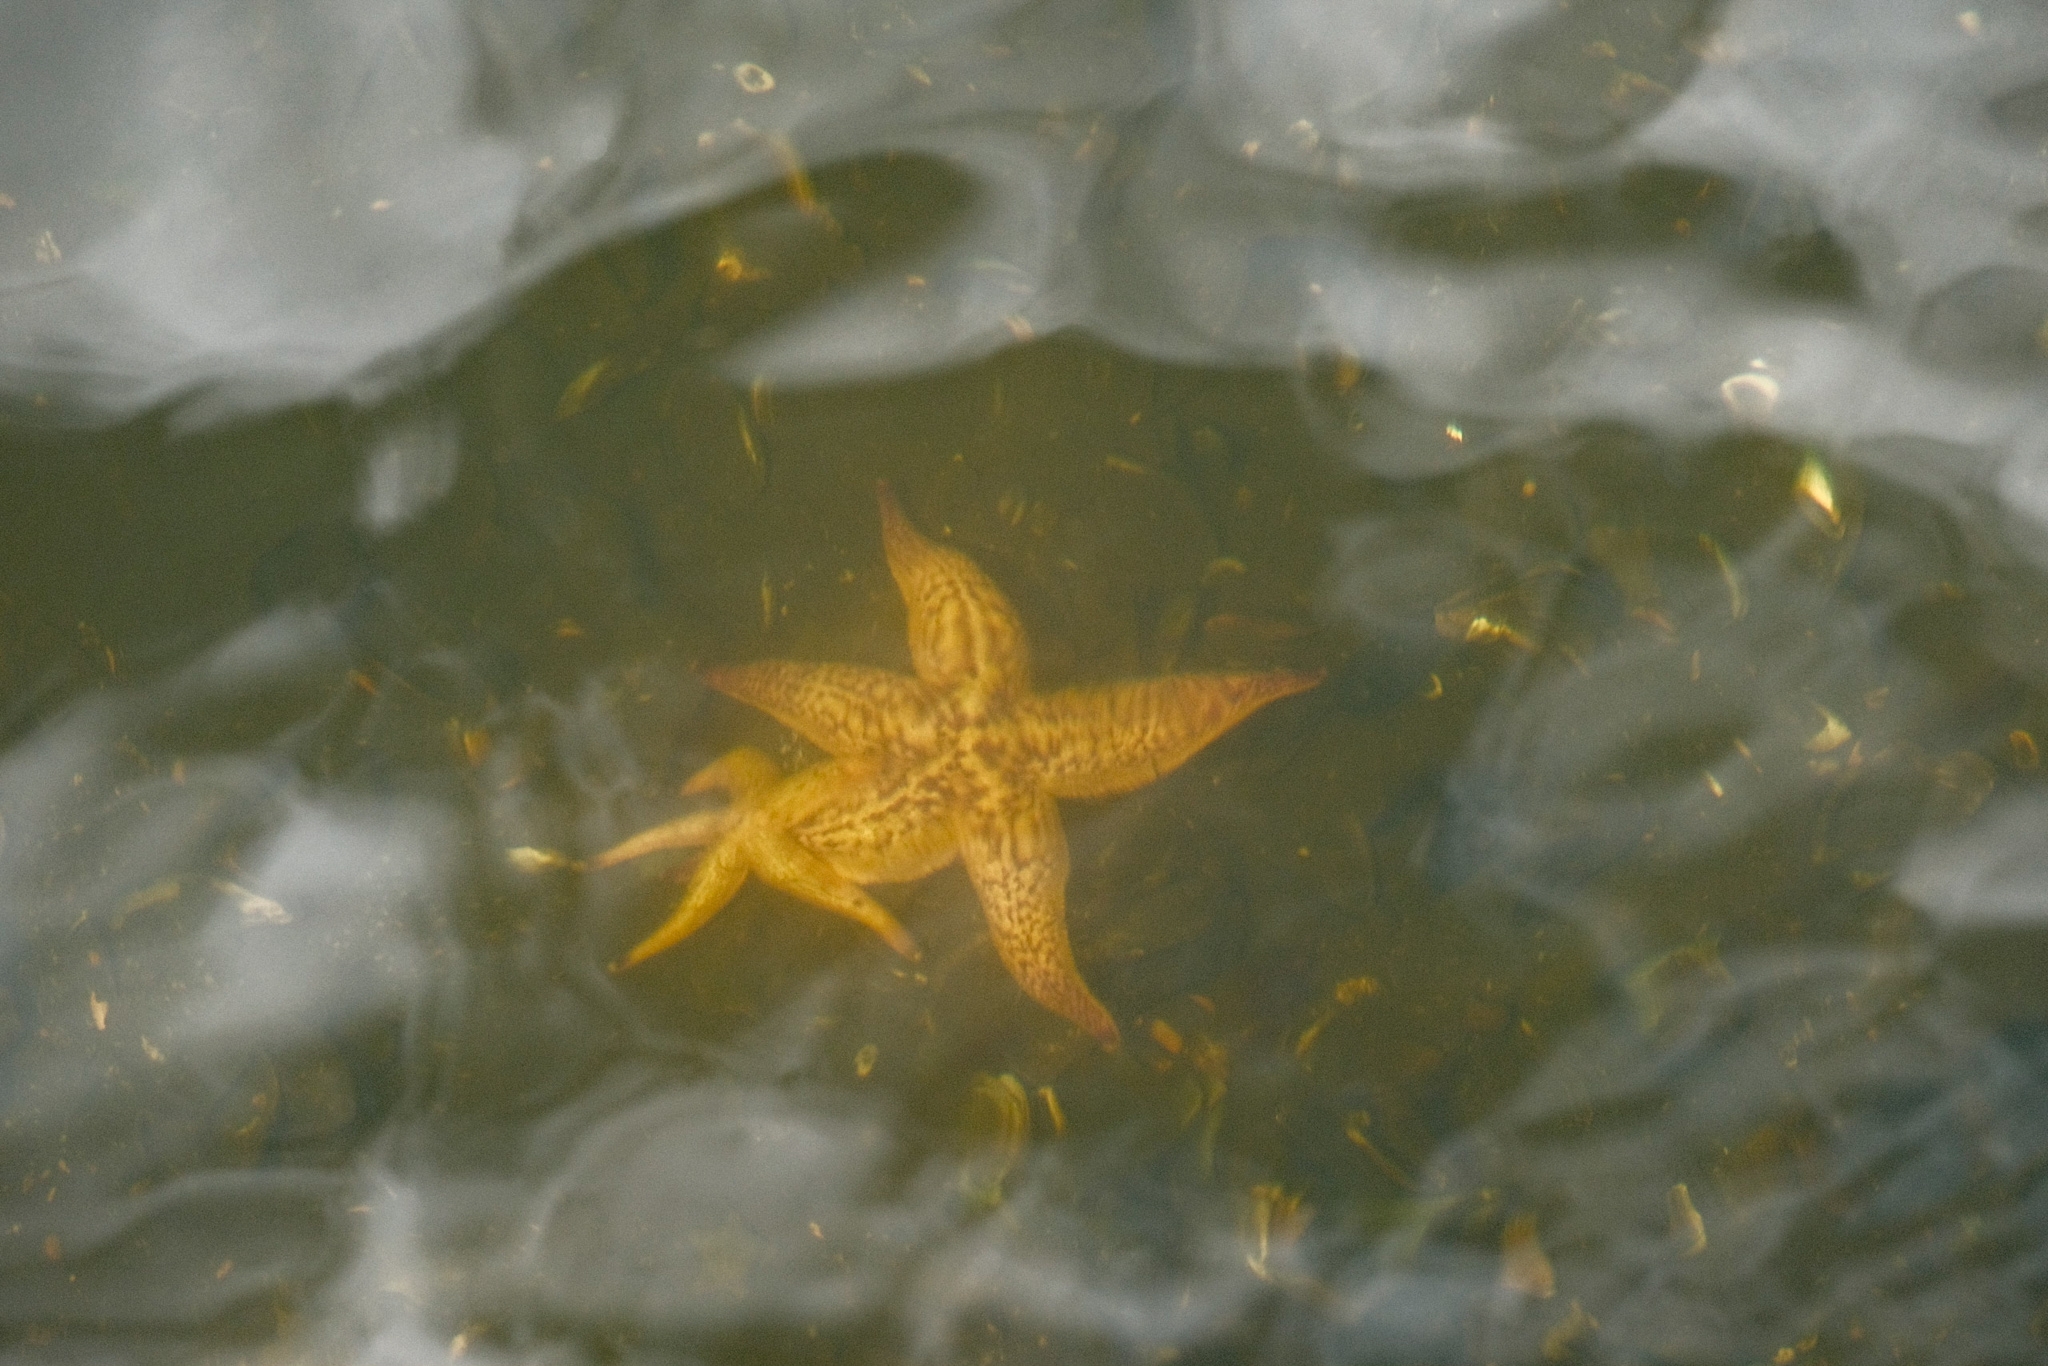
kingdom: Animalia
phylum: Echinodermata
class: Asteroidea
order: Forcipulatida
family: Asteriidae
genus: Asterias
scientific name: Asterias amurensis
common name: Flat-bottomed star
